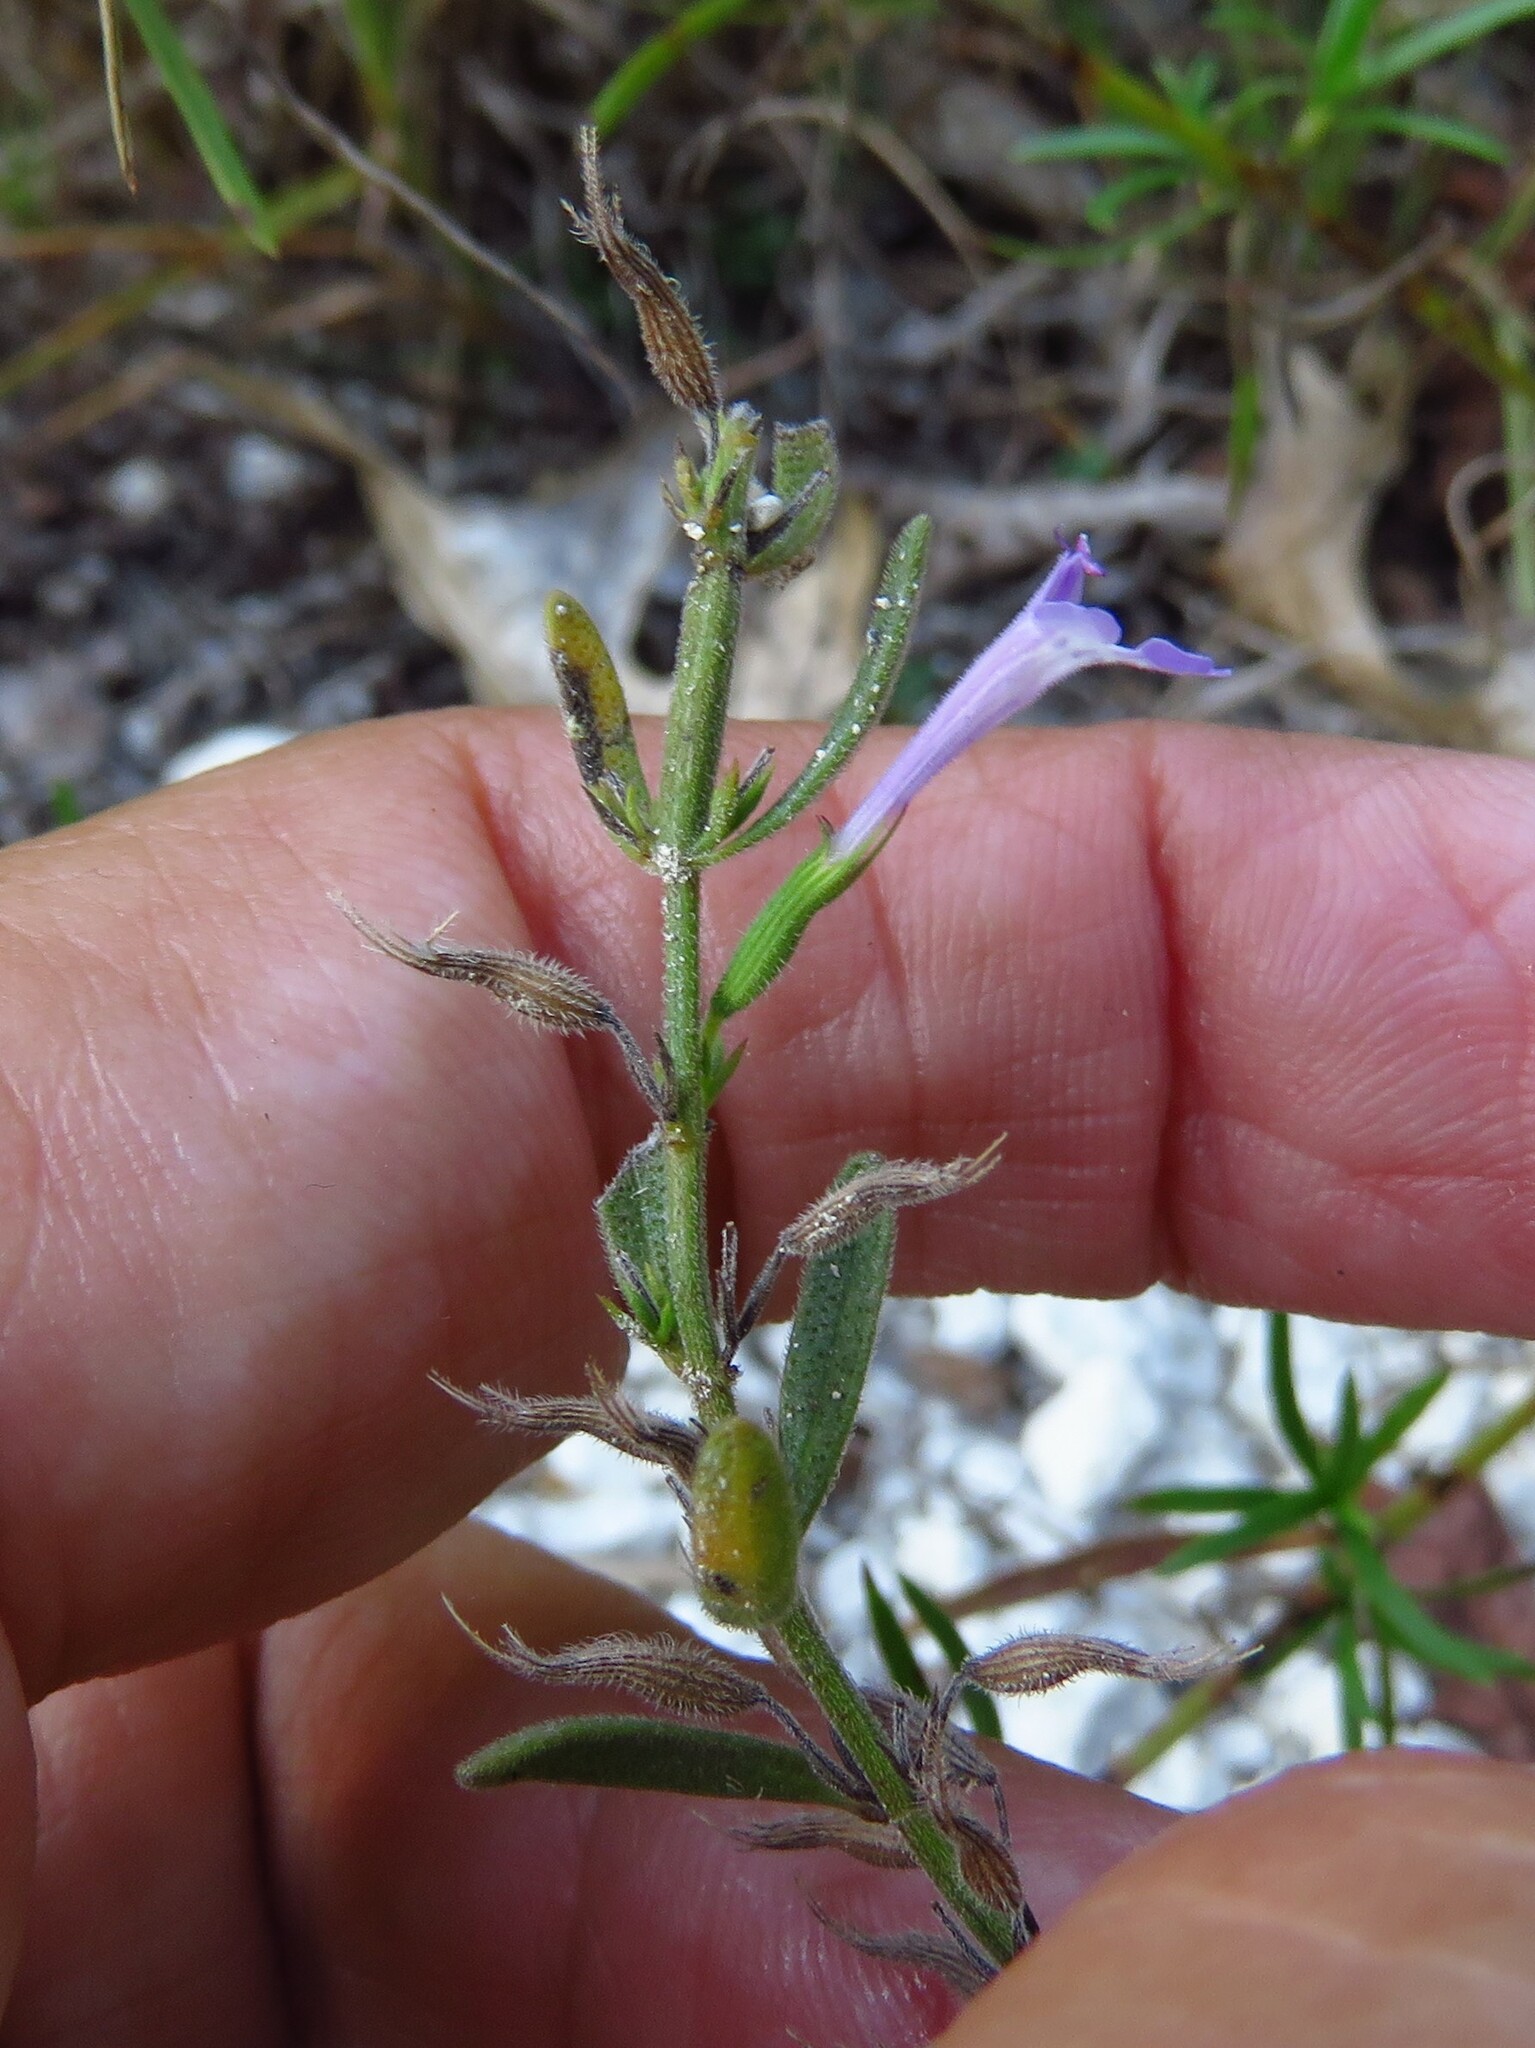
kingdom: Plantae
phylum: Tracheophyta
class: Magnoliopsida
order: Lamiales
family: Lamiaceae
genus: Hedeoma
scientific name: Hedeoma reverchonii
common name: Reverchon's false penny-royal
